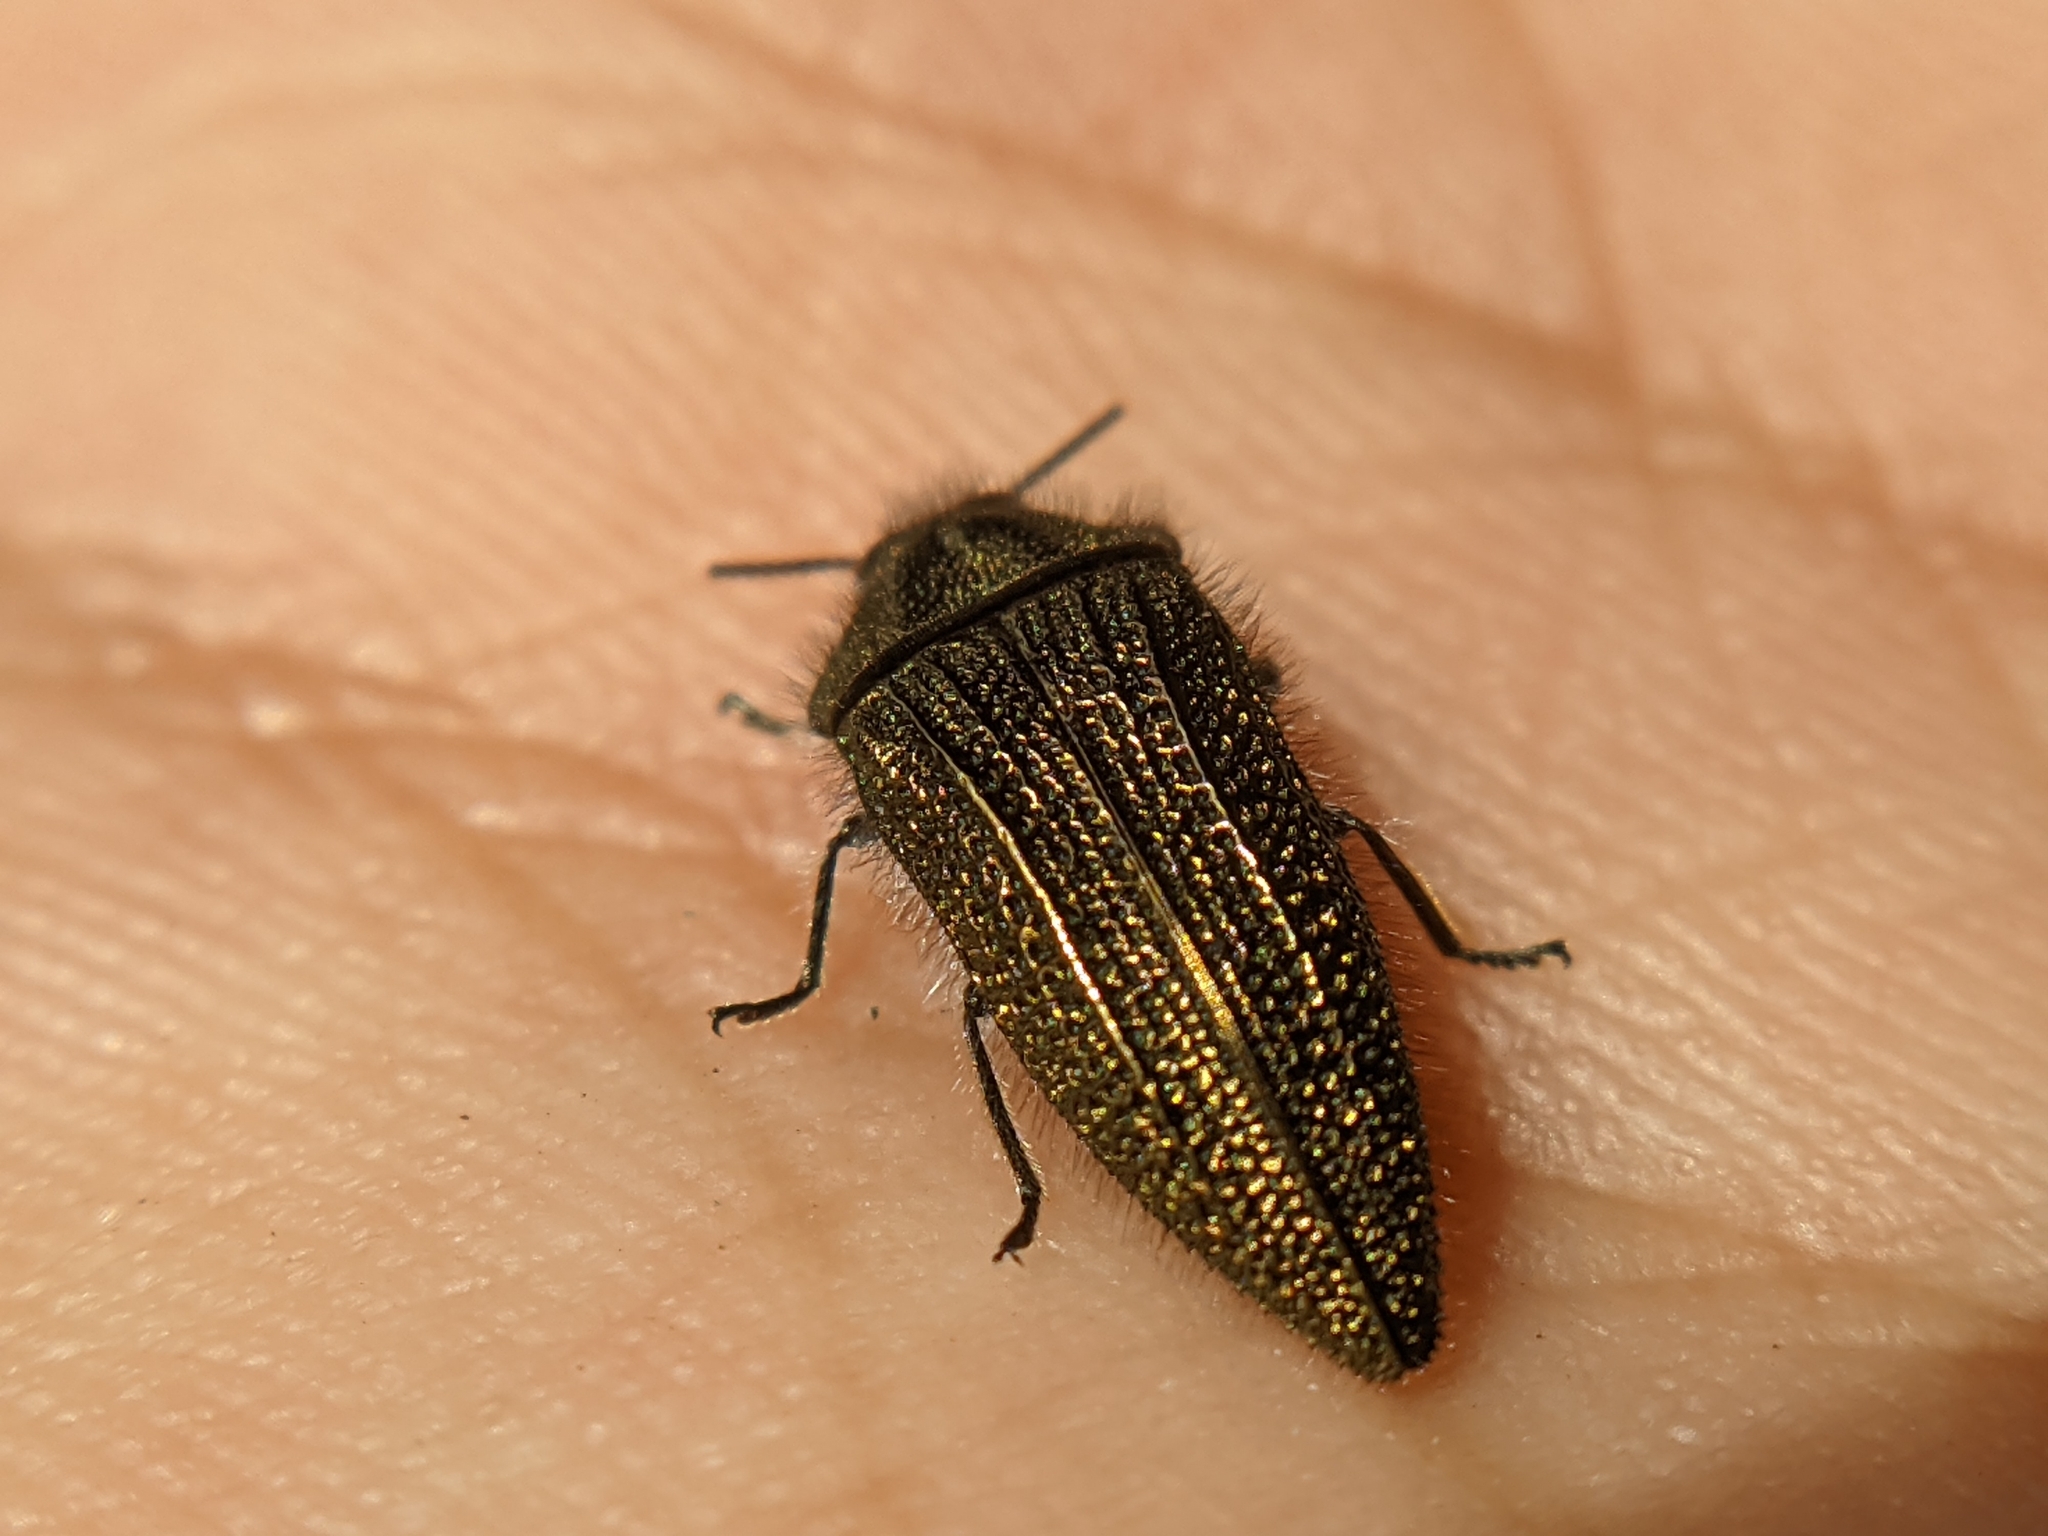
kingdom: Animalia
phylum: Arthropoda
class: Insecta
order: Coleoptera
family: Buprestidae
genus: Acmaeodera
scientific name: Acmaeodera cuprina
